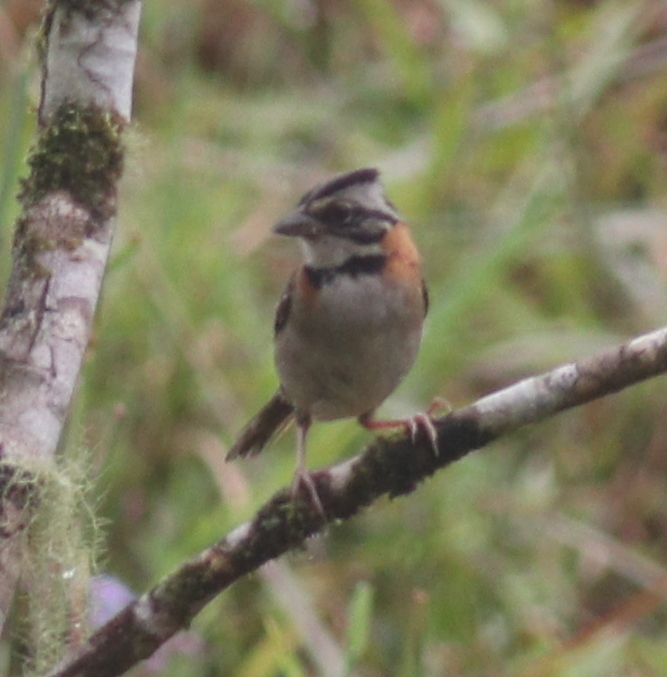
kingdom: Animalia
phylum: Chordata
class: Aves
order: Passeriformes
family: Passerellidae
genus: Zonotrichia
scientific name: Zonotrichia capensis
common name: Rufous-collared sparrow
